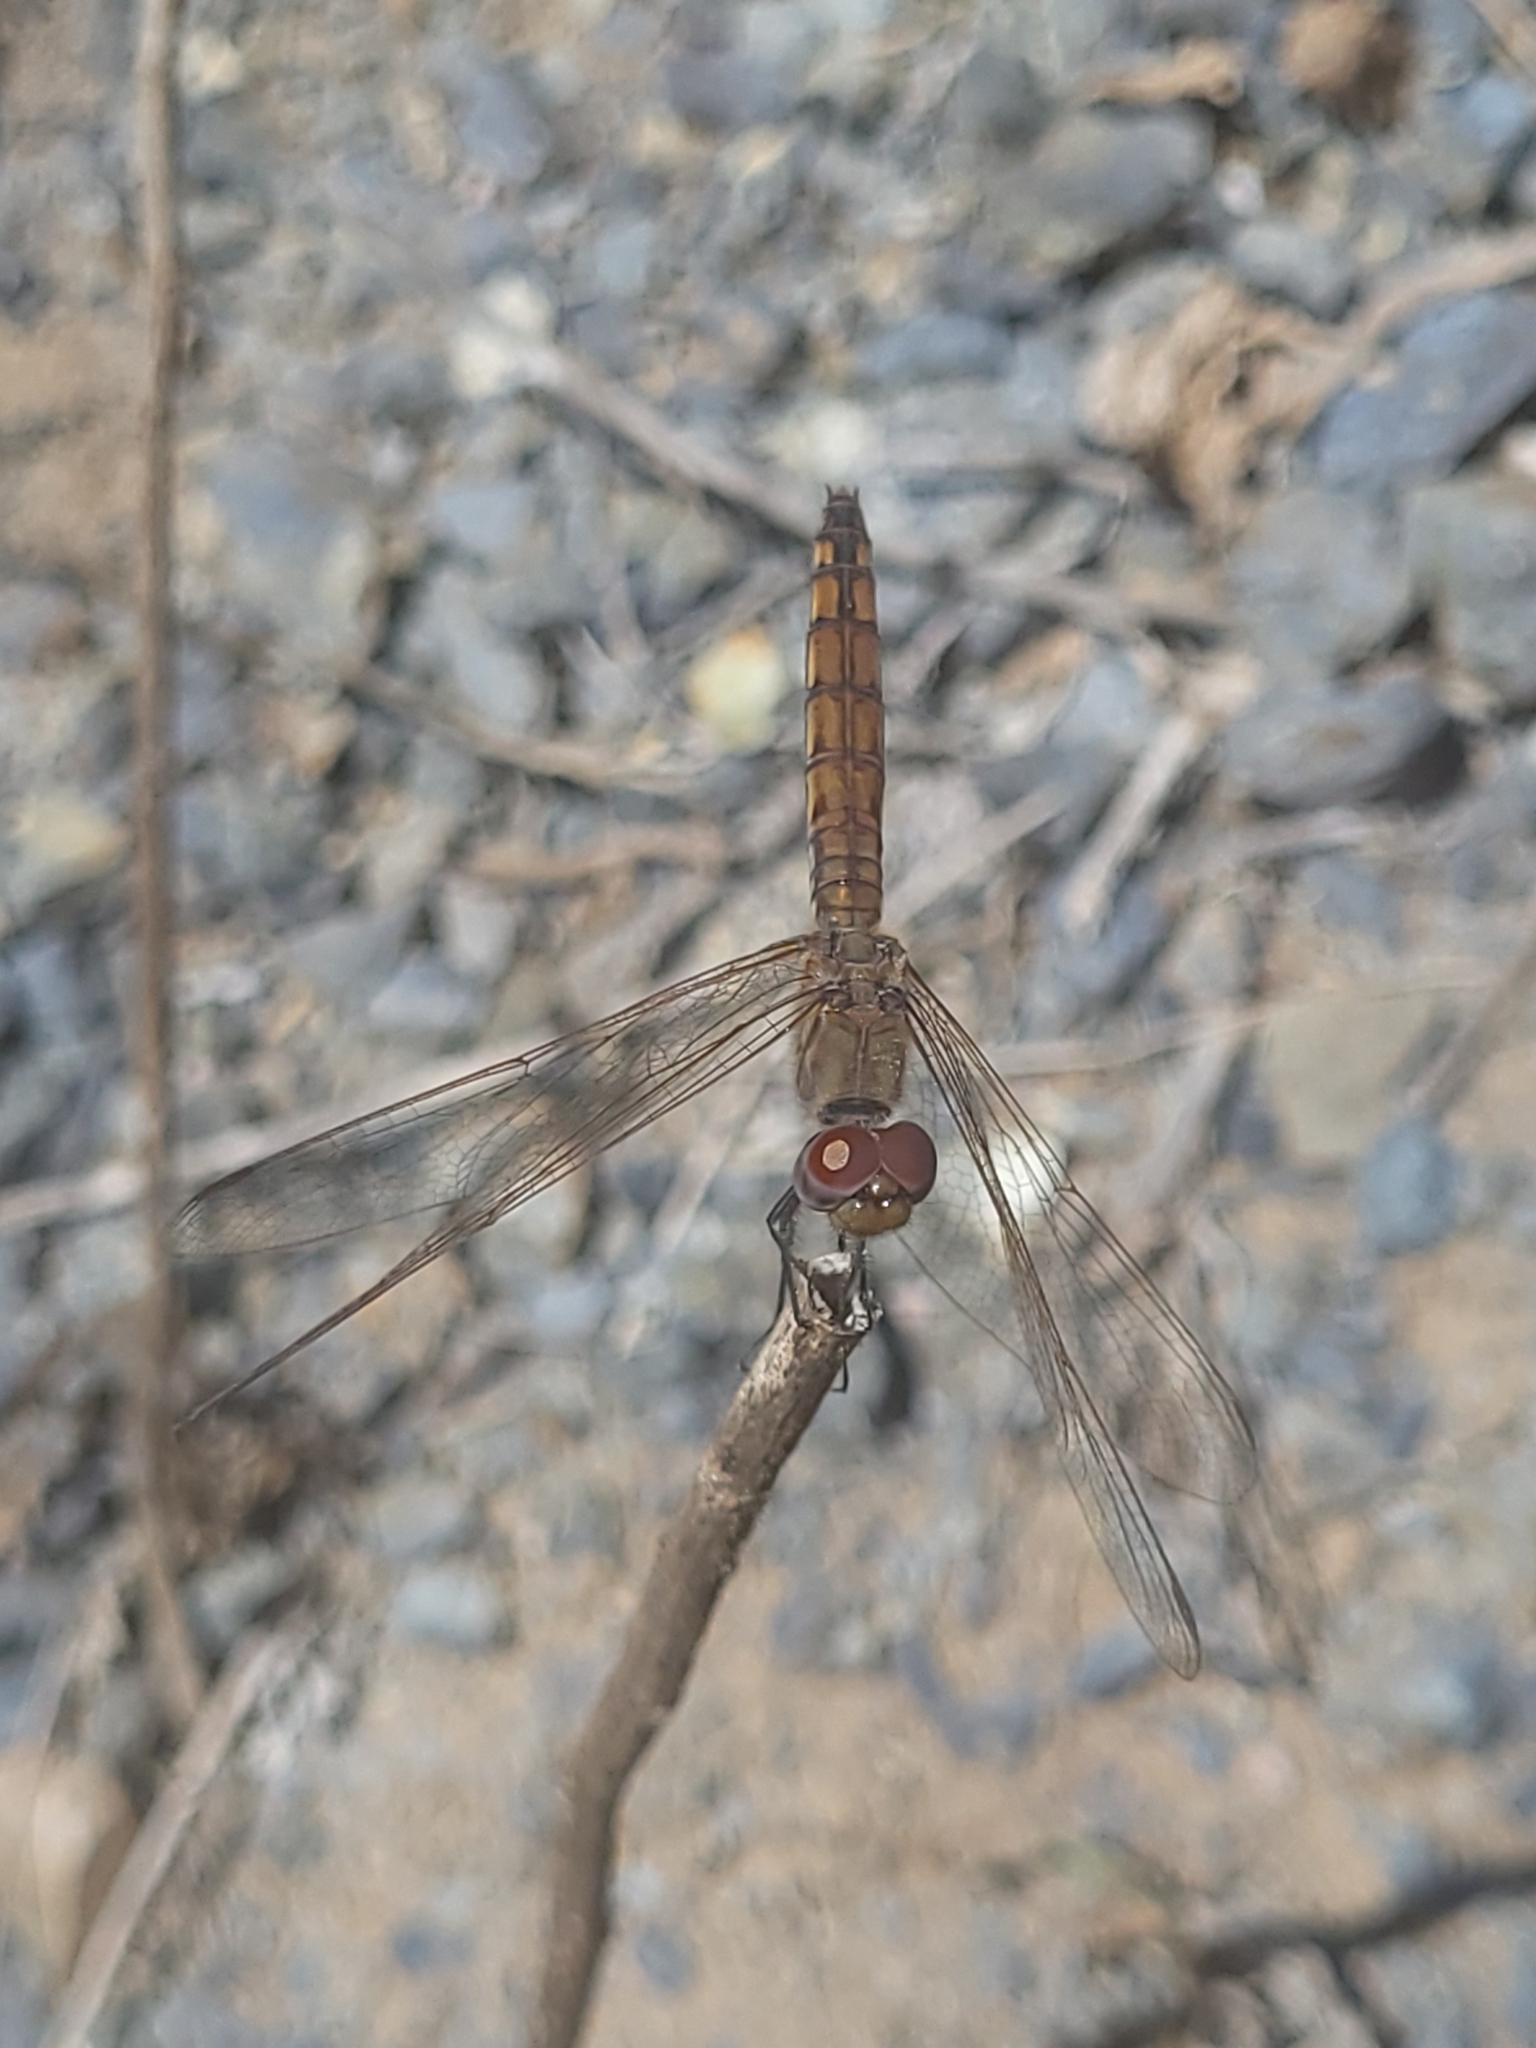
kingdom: Animalia
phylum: Arthropoda
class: Insecta
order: Odonata
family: Libellulidae
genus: Trithemis
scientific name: Trithemis annulata
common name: Violet dropwing
